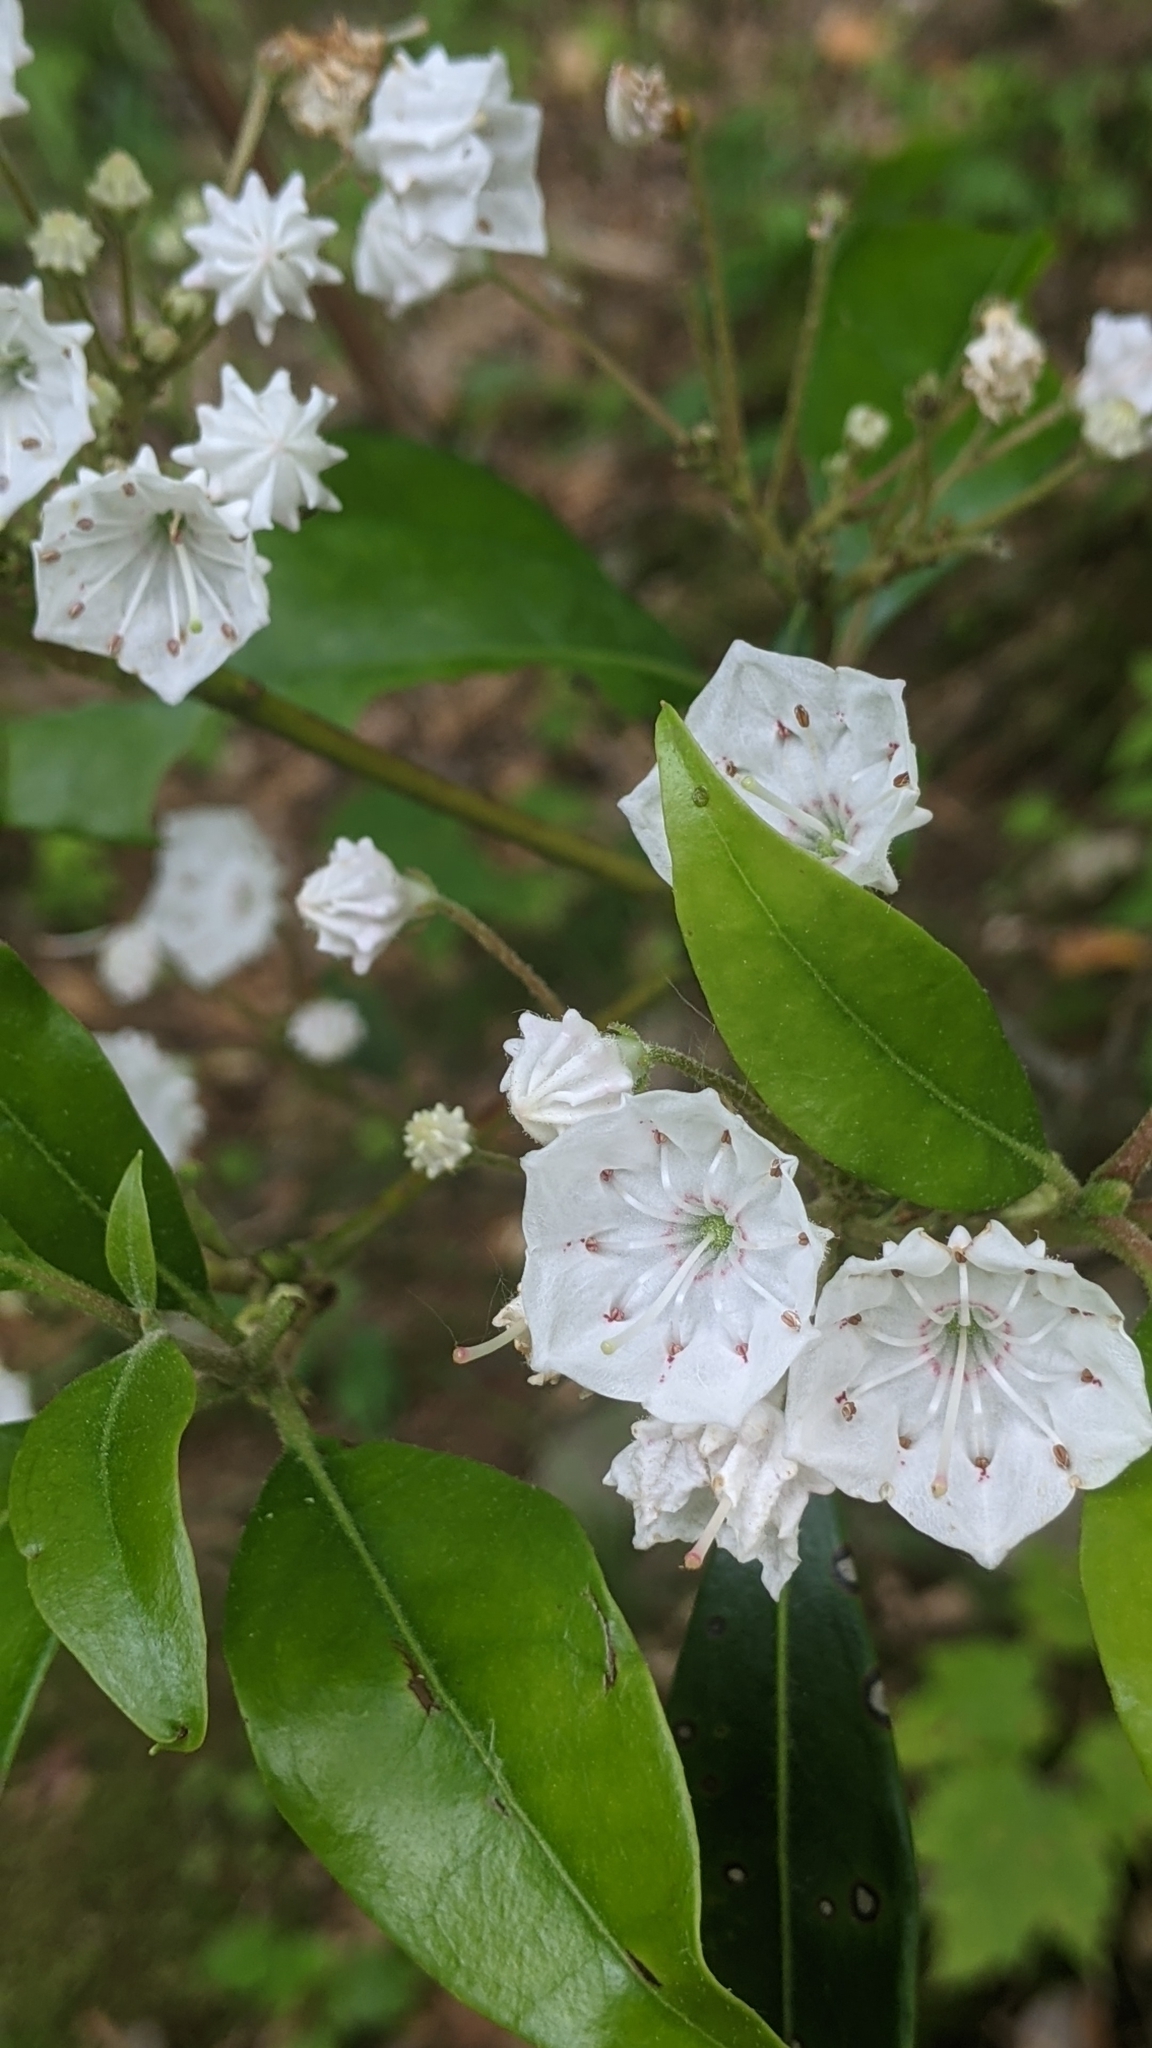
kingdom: Plantae
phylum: Tracheophyta
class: Magnoliopsida
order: Ericales
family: Ericaceae
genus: Kalmia
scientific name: Kalmia latifolia
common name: Mountain-laurel
